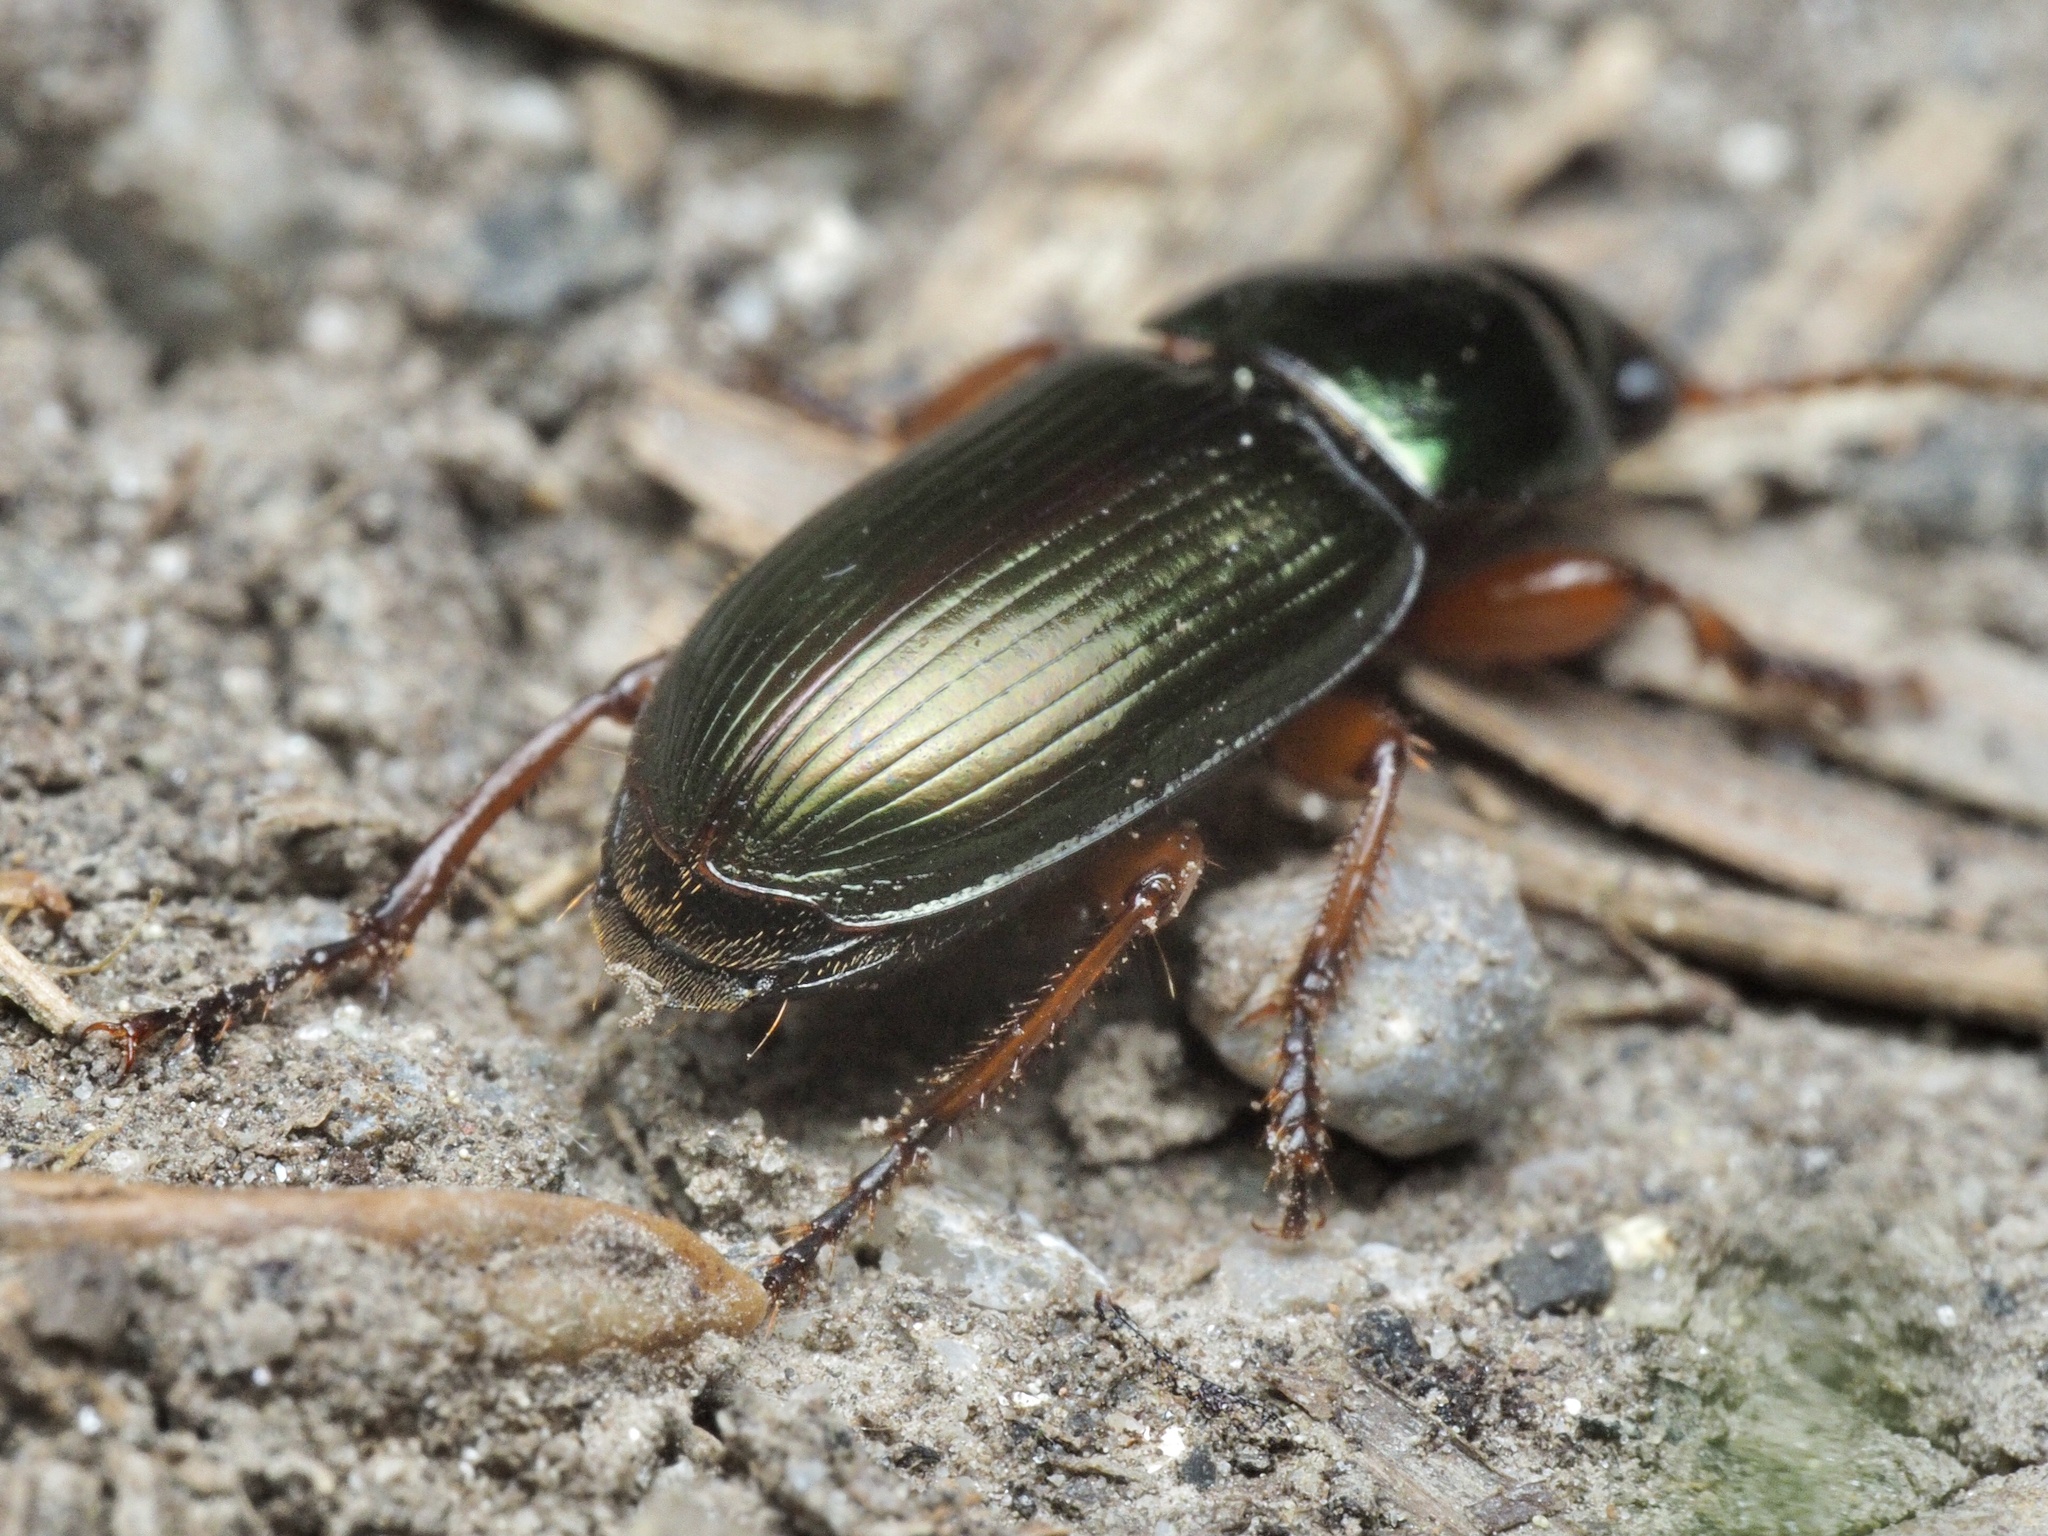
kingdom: Animalia
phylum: Arthropoda
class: Insecta
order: Coleoptera
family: Carabidae
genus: Harpalus
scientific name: Harpalus affinis
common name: Polychrome harp ground beetle
